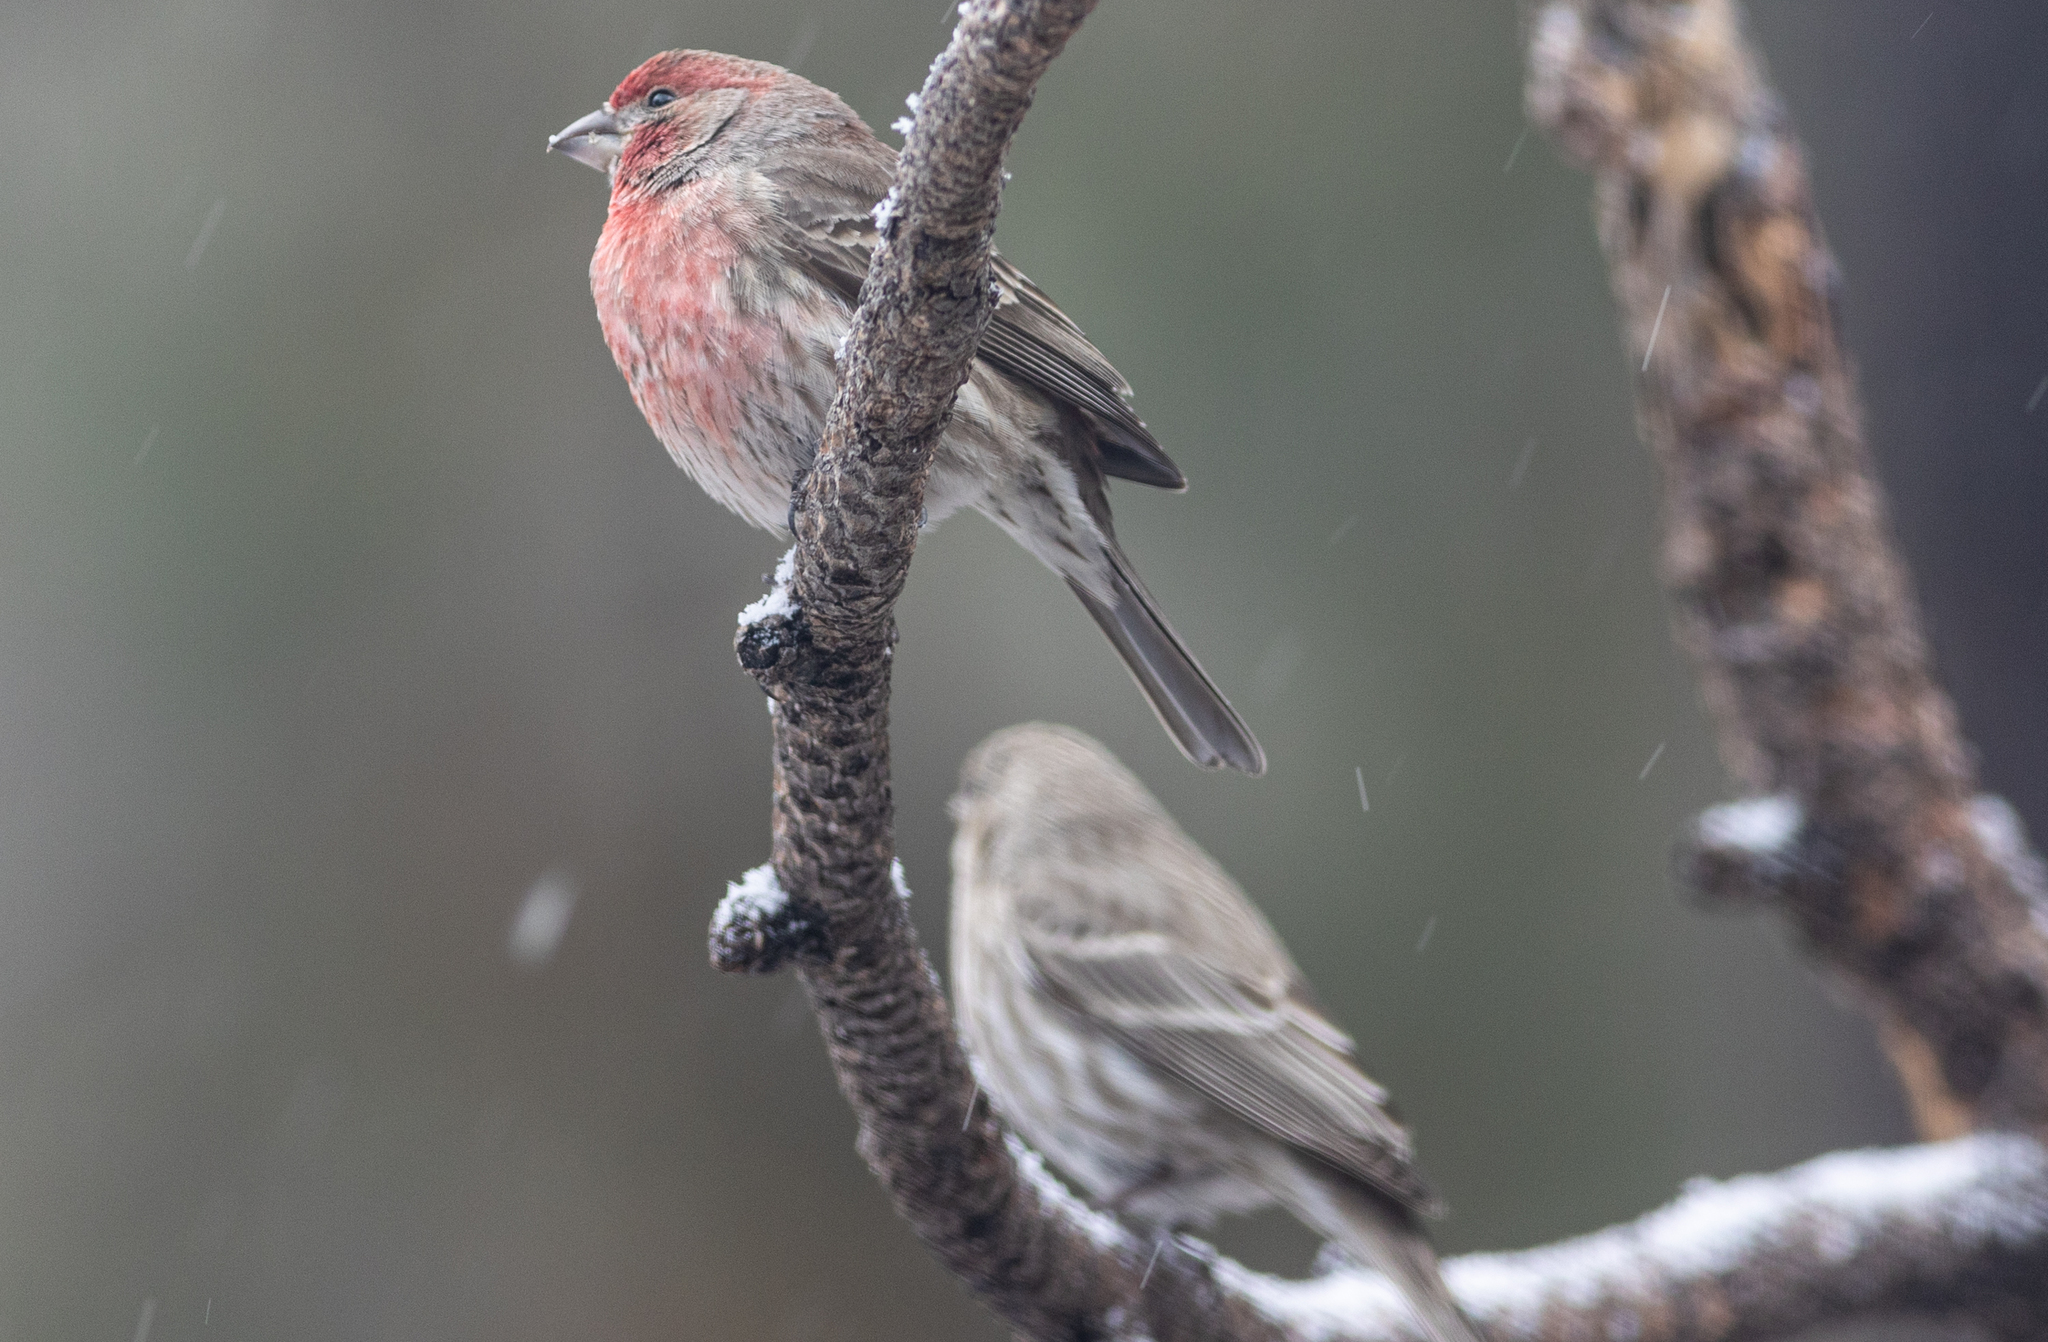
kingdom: Animalia
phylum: Chordata
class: Aves
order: Passeriformes
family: Fringillidae
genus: Haemorhous
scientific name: Haemorhous mexicanus
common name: House finch
